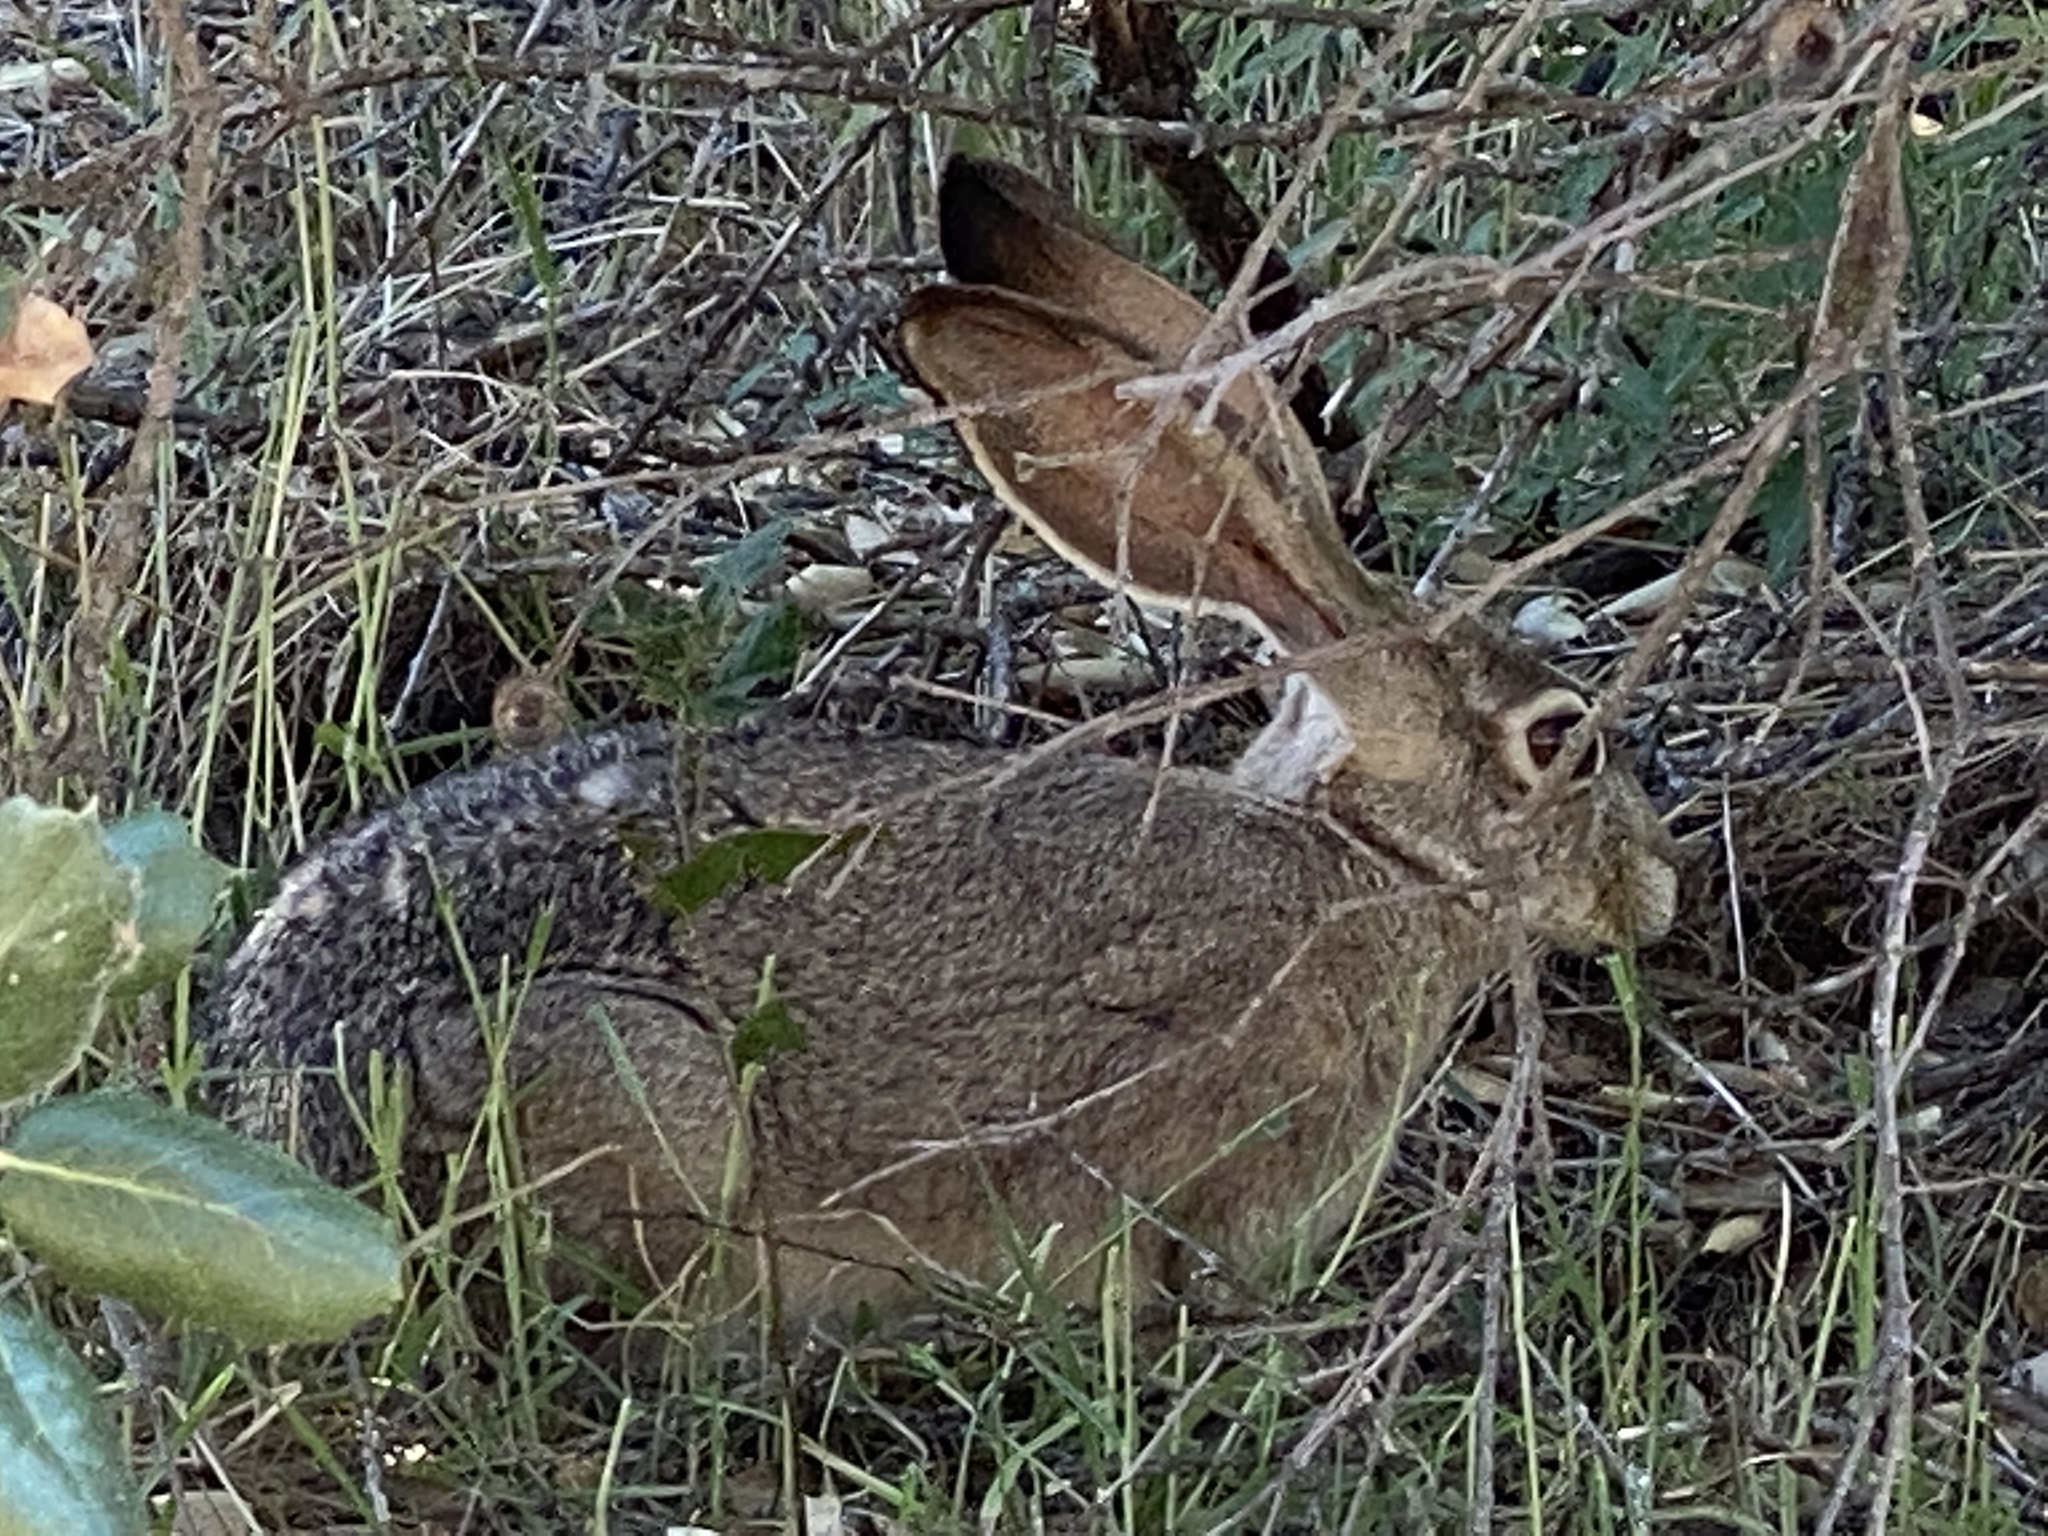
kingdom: Animalia
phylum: Chordata
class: Mammalia
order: Lagomorpha
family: Leporidae
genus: Lepus
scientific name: Lepus californicus
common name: Black-tailed jackrabbit
